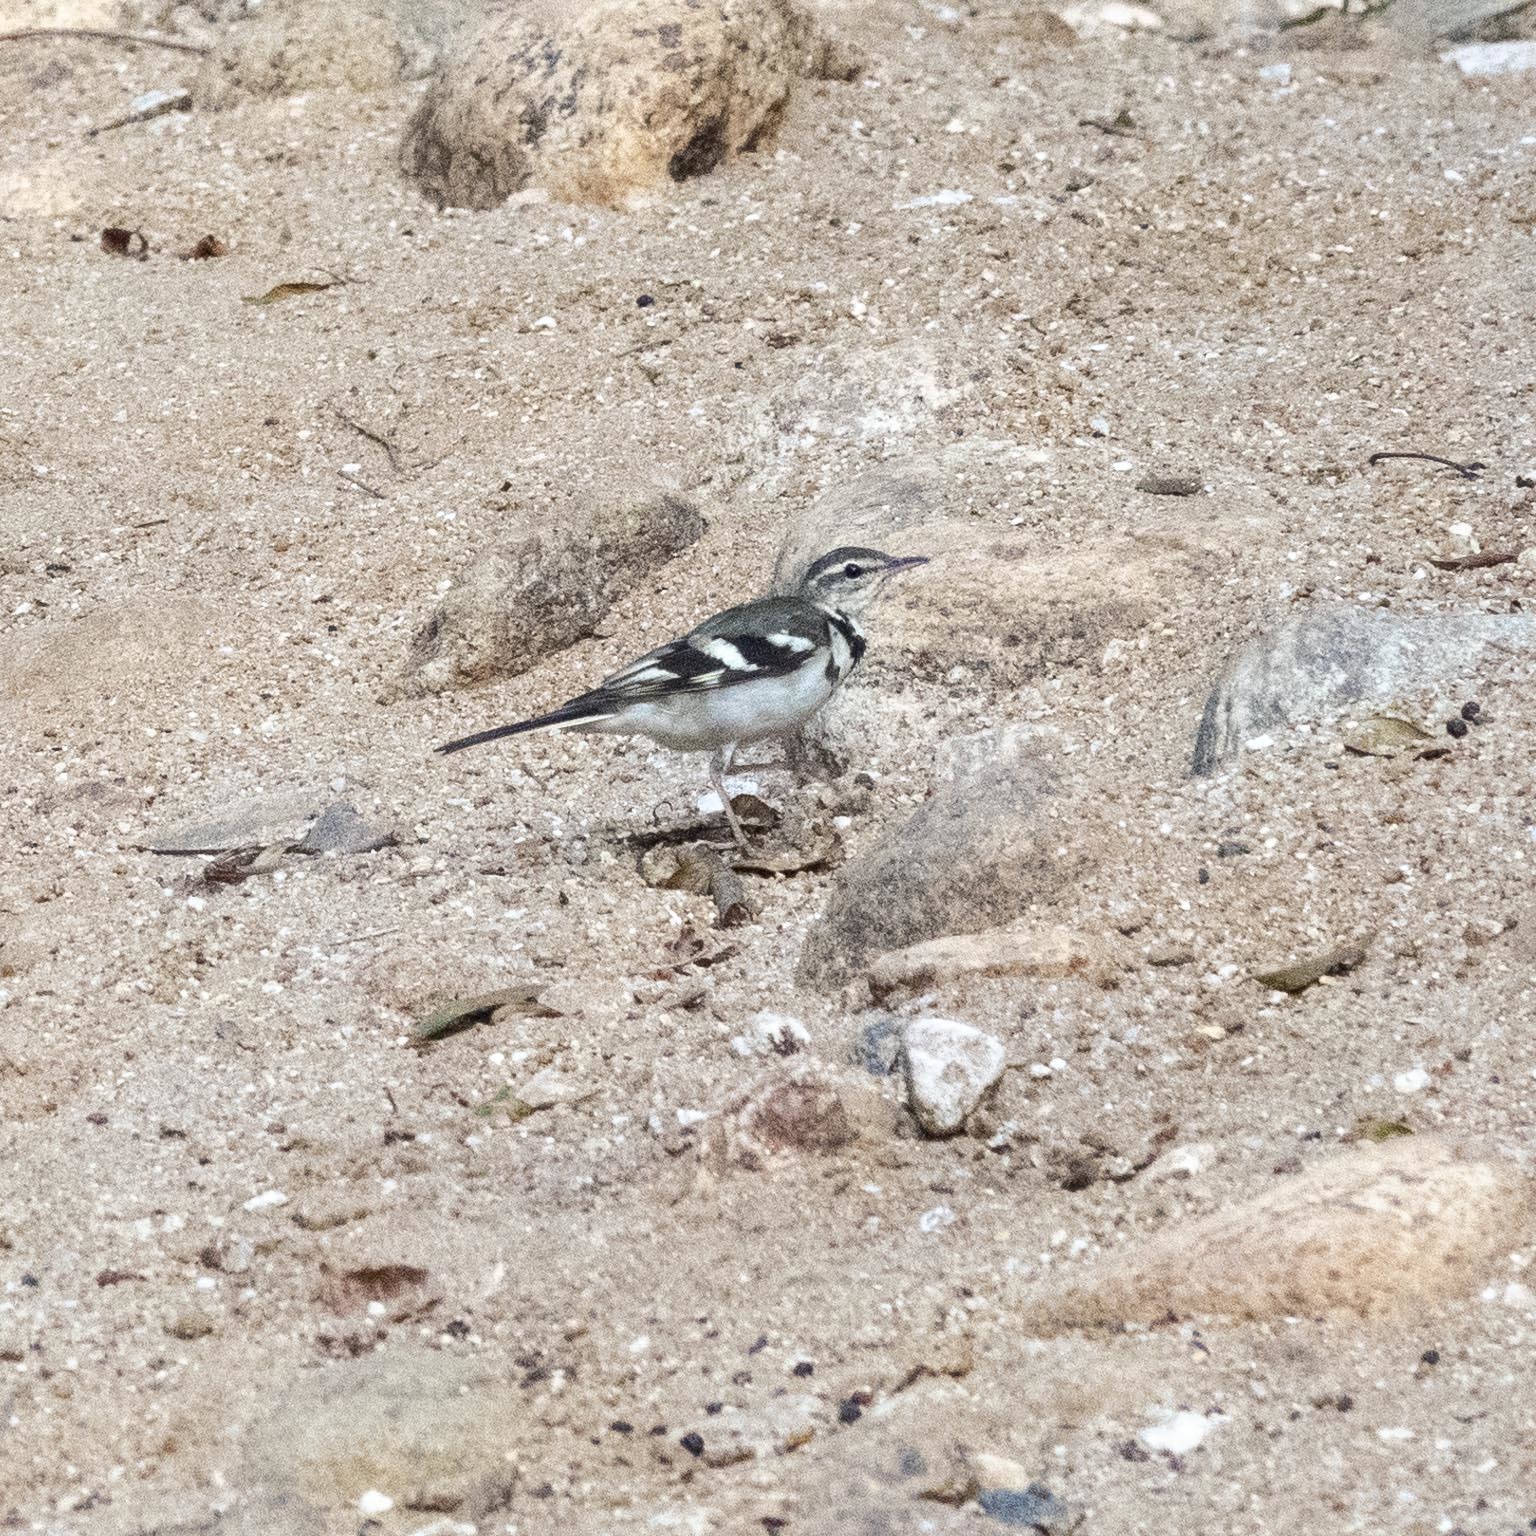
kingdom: Animalia
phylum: Chordata
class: Aves
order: Passeriformes
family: Motacillidae
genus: Dendronanthus
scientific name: Dendronanthus indicus
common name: Forest wagtail
